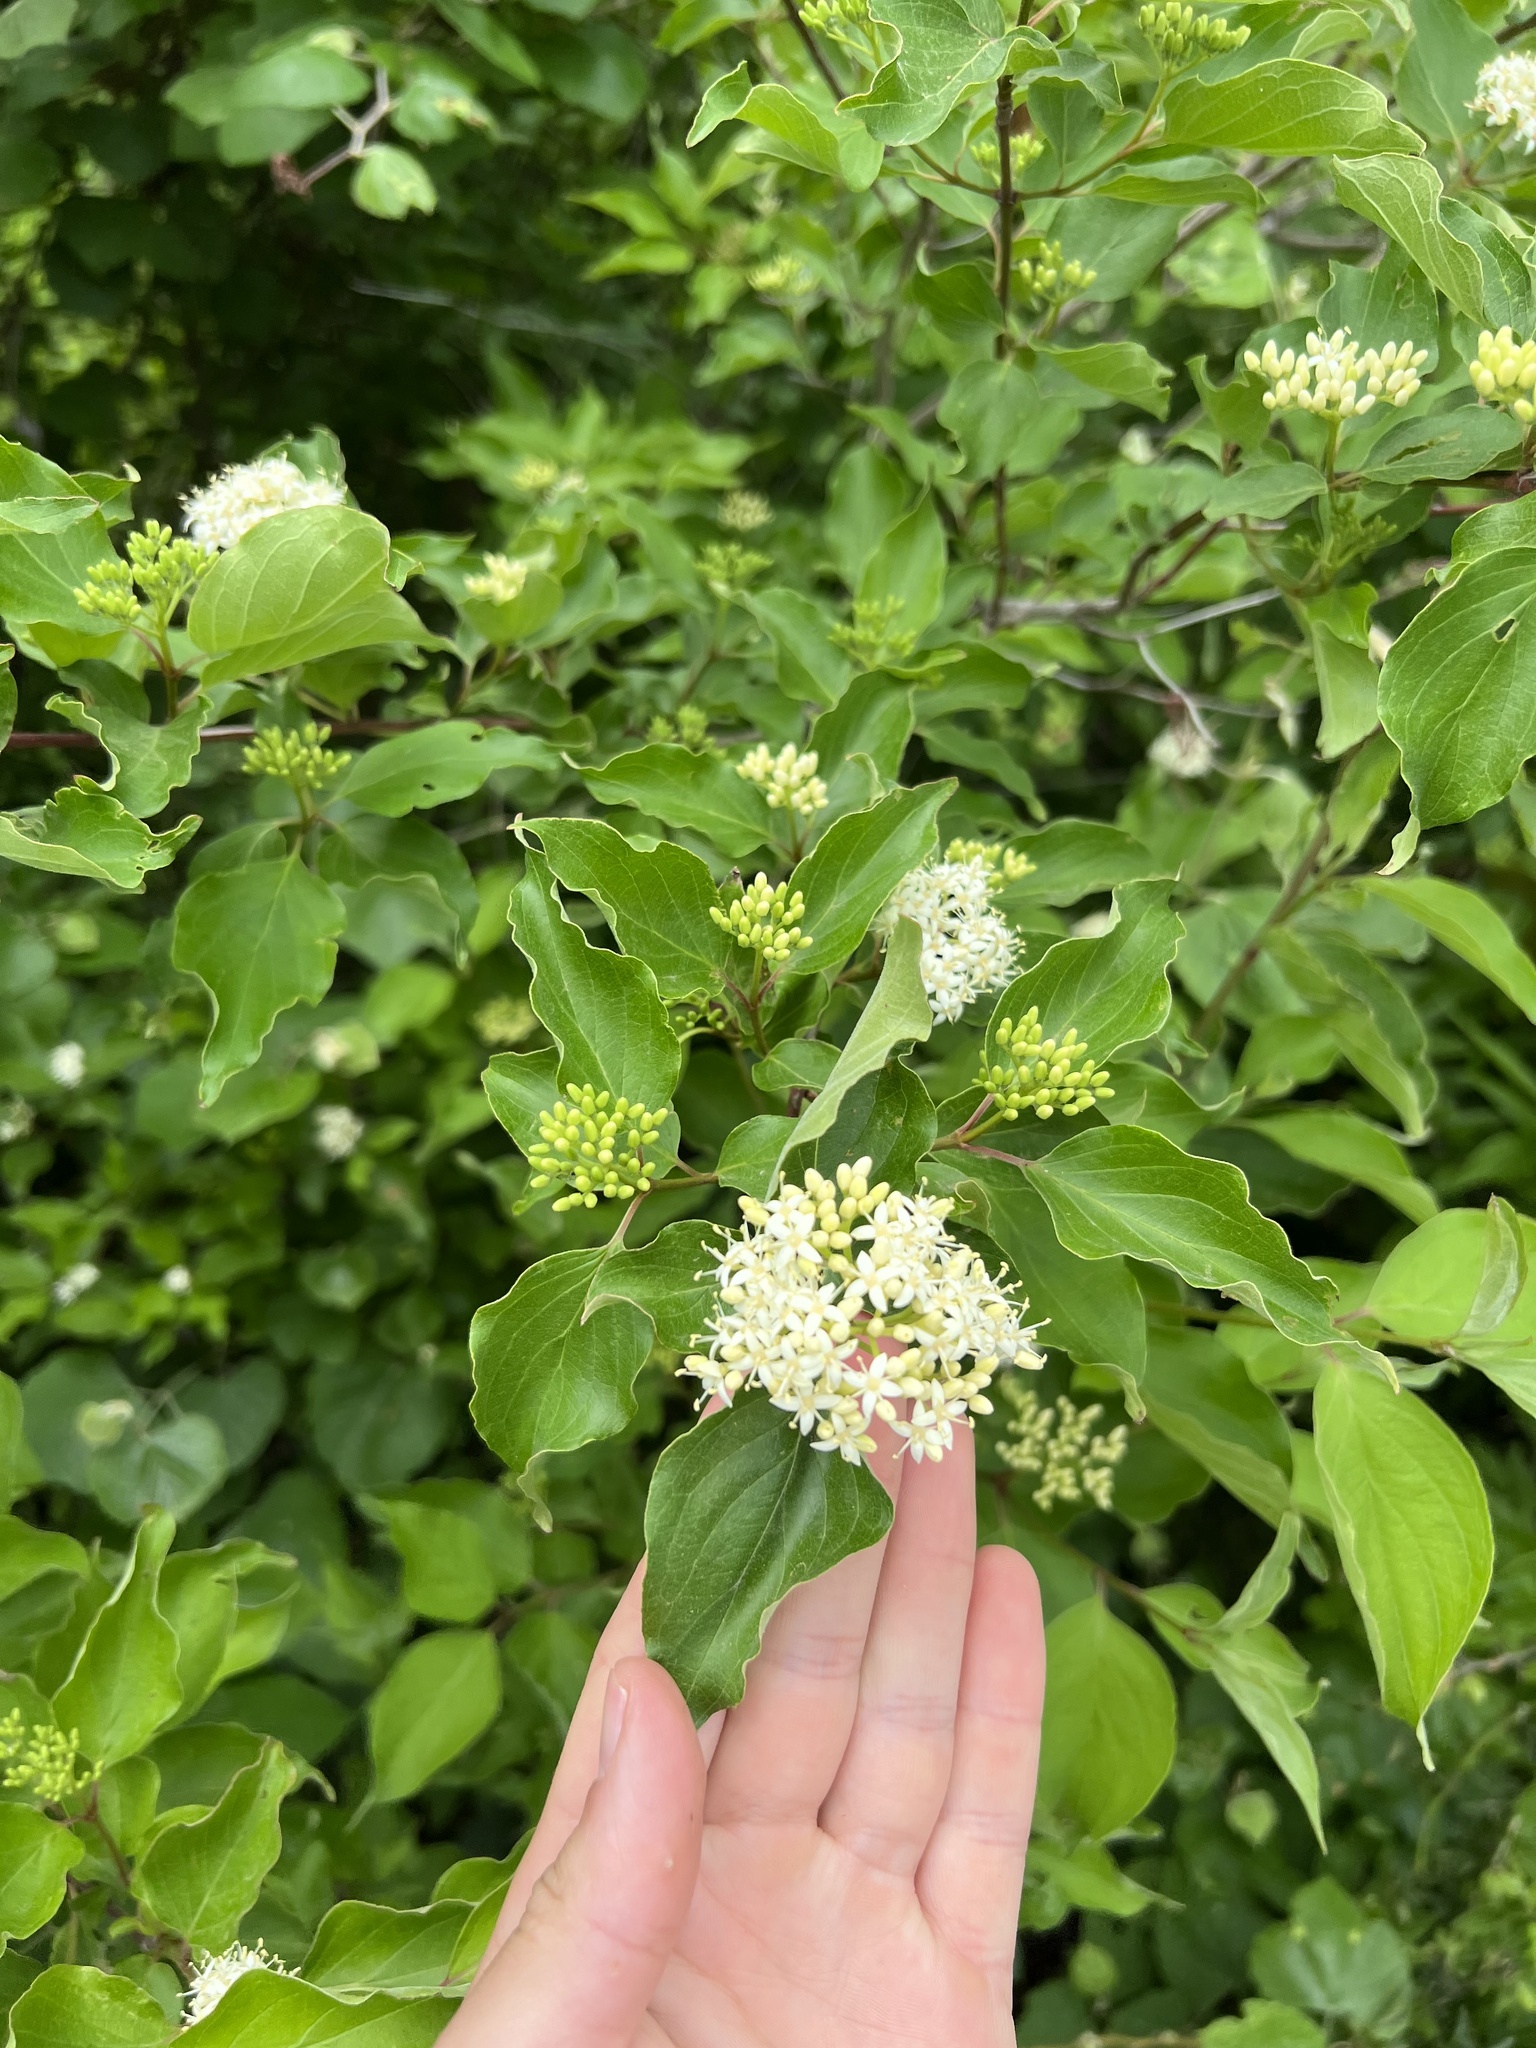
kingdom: Plantae
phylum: Tracheophyta
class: Magnoliopsida
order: Cornales
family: Cornaceae
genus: Cornus
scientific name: Cornus drummondii
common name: Rough-leaf dogwood
